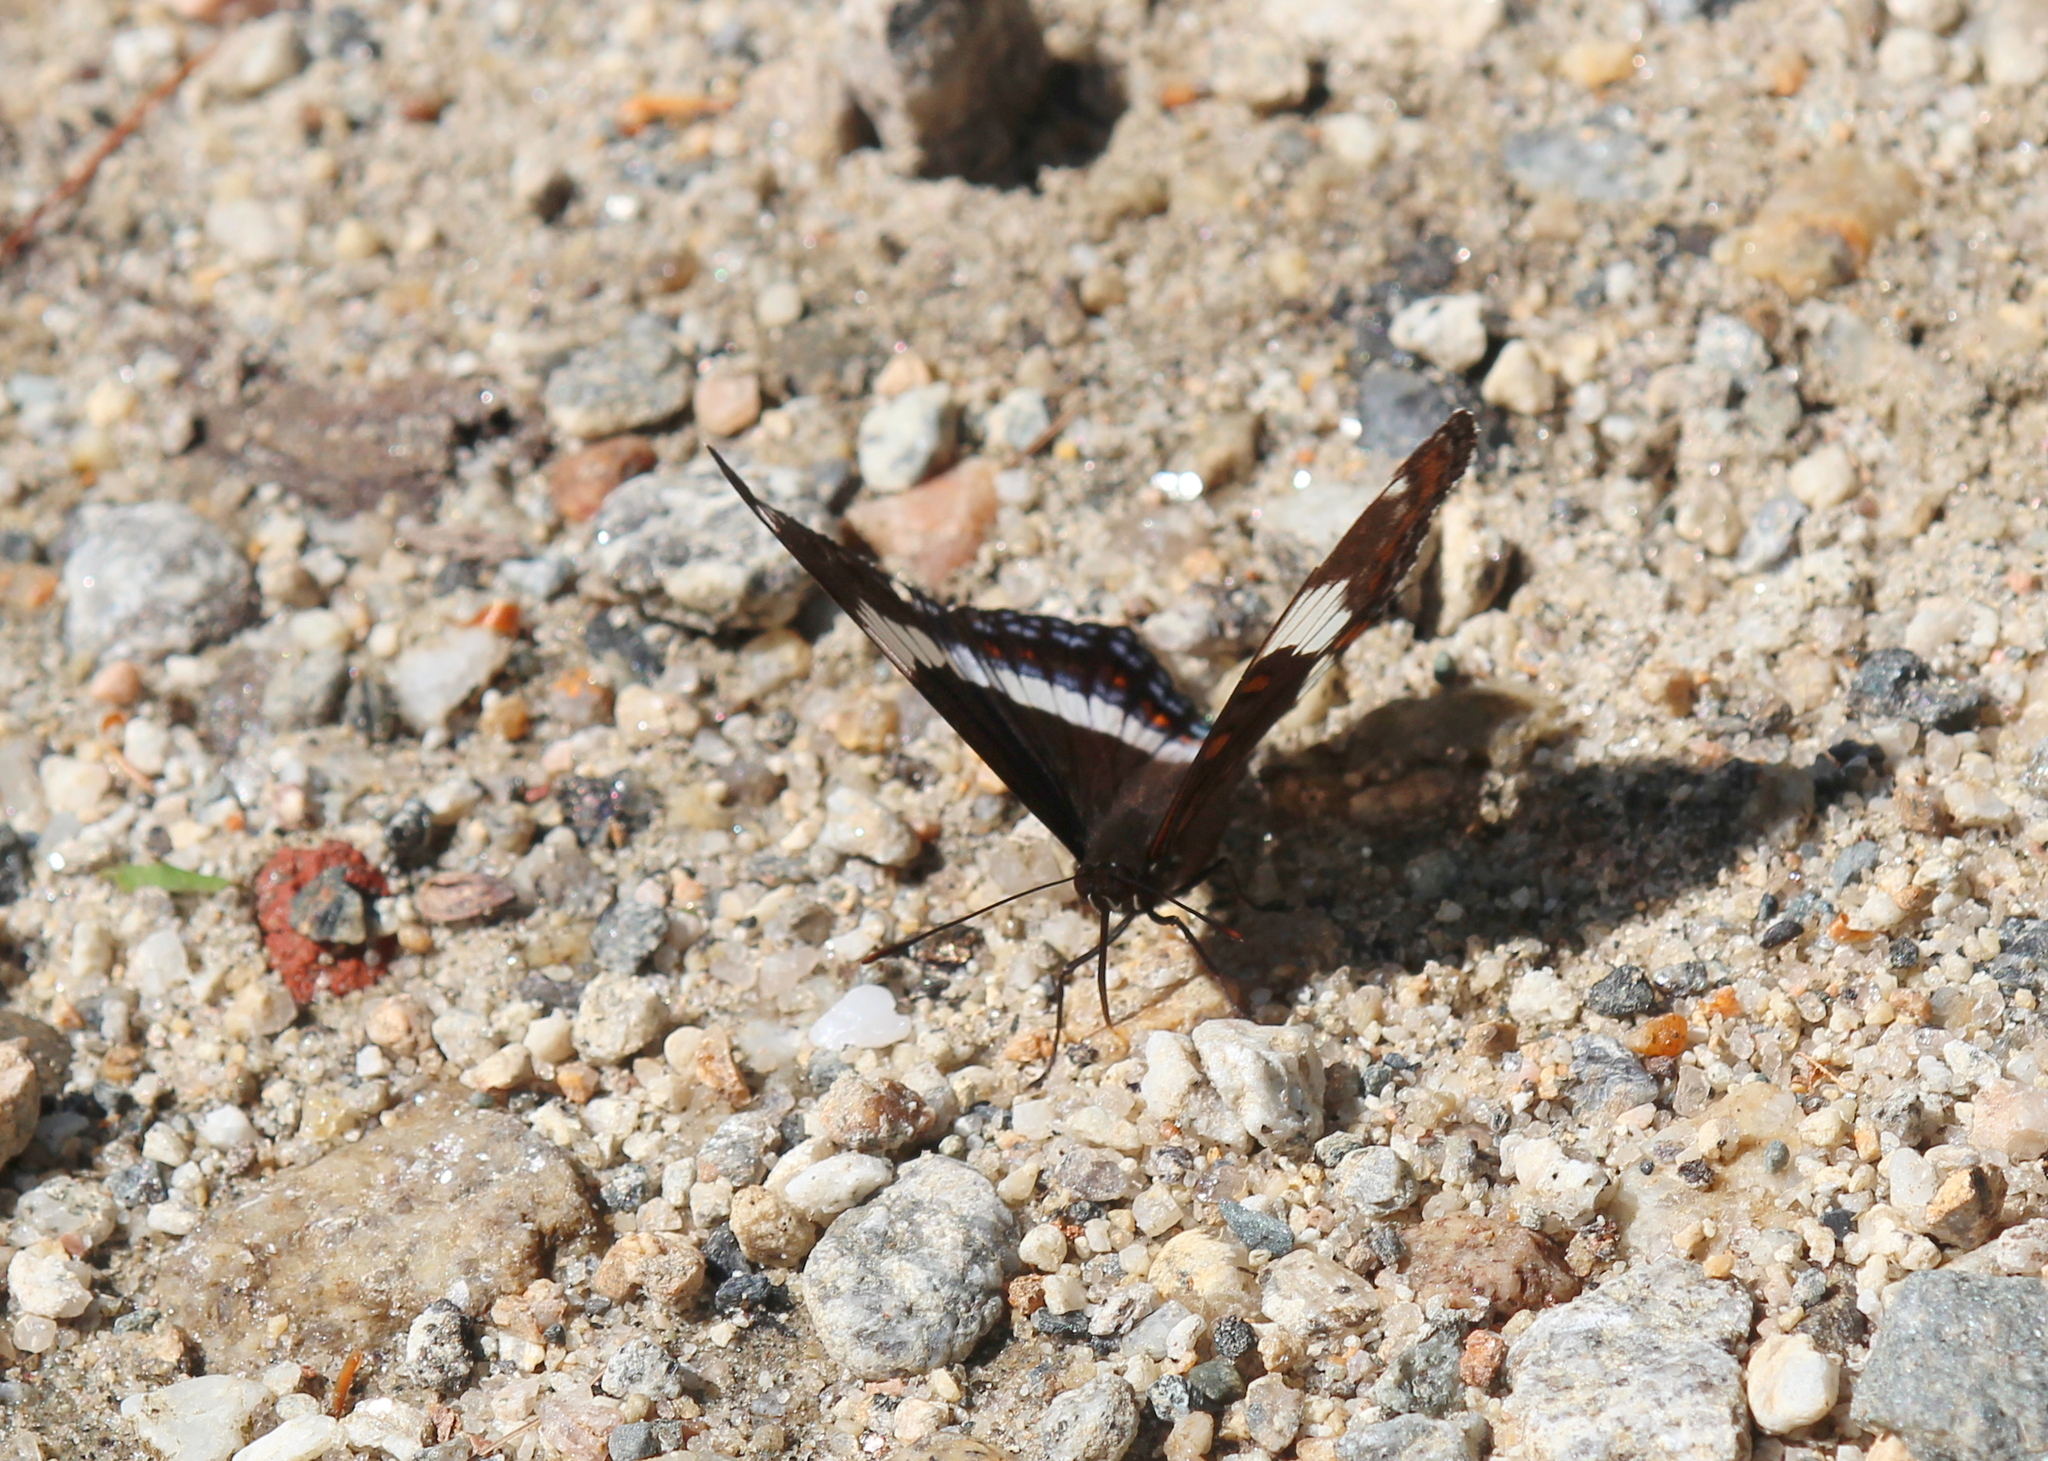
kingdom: Animalia
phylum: Arthropoda
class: Insecta
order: Lepidoptera
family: Nymphalidae
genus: Limenitis
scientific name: Limenitis arthemis
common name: Red-spotted admiral
